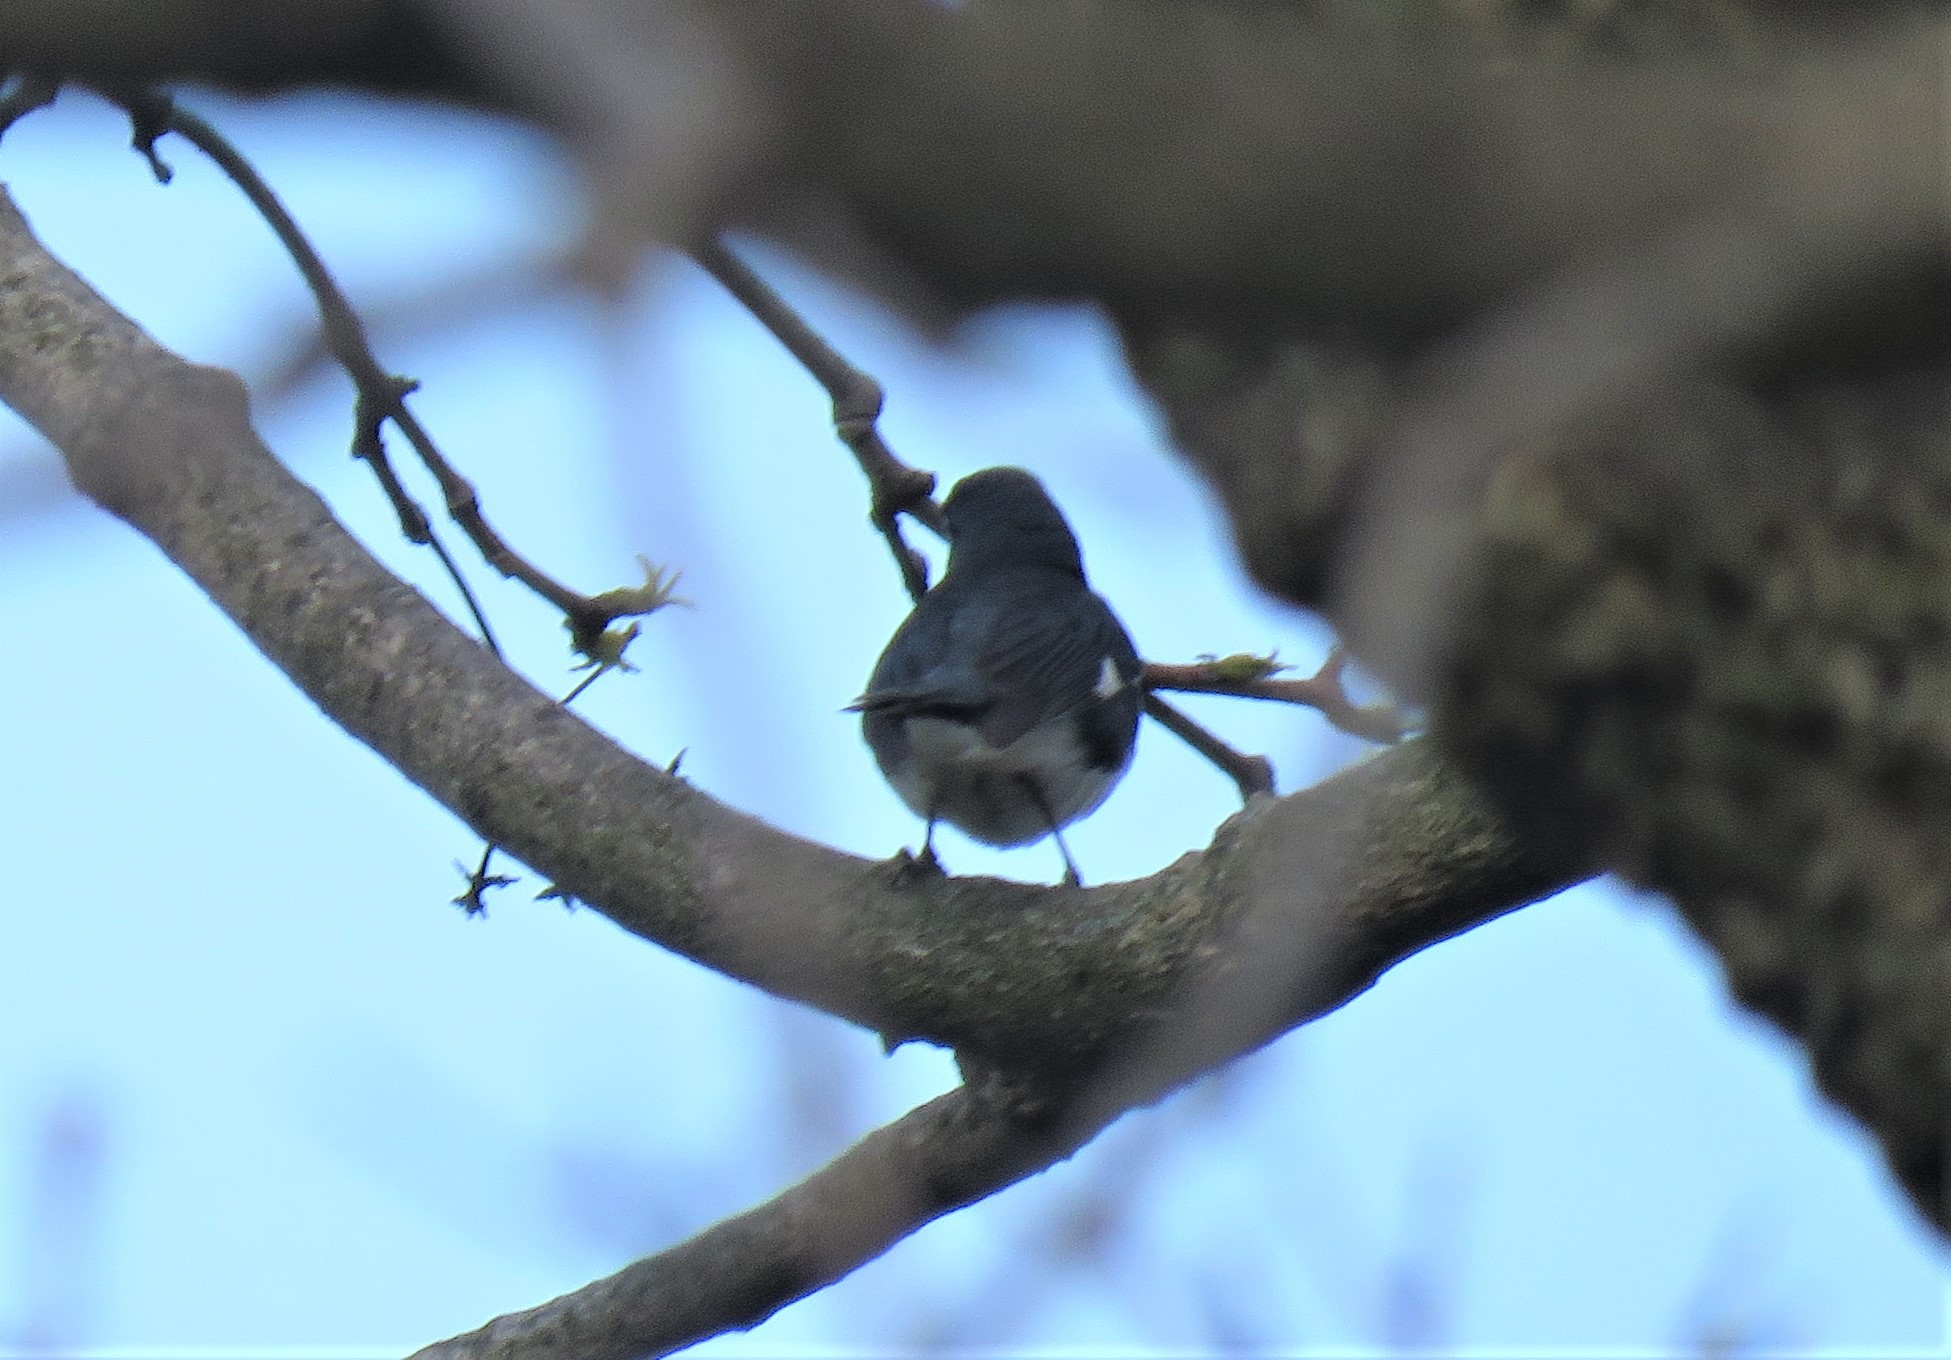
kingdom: Animalia
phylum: Chordata
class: Aves
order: Passeriformes
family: Parulidae
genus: Setophaga
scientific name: Setophaga caerulescens
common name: Black-throated blue warbler
